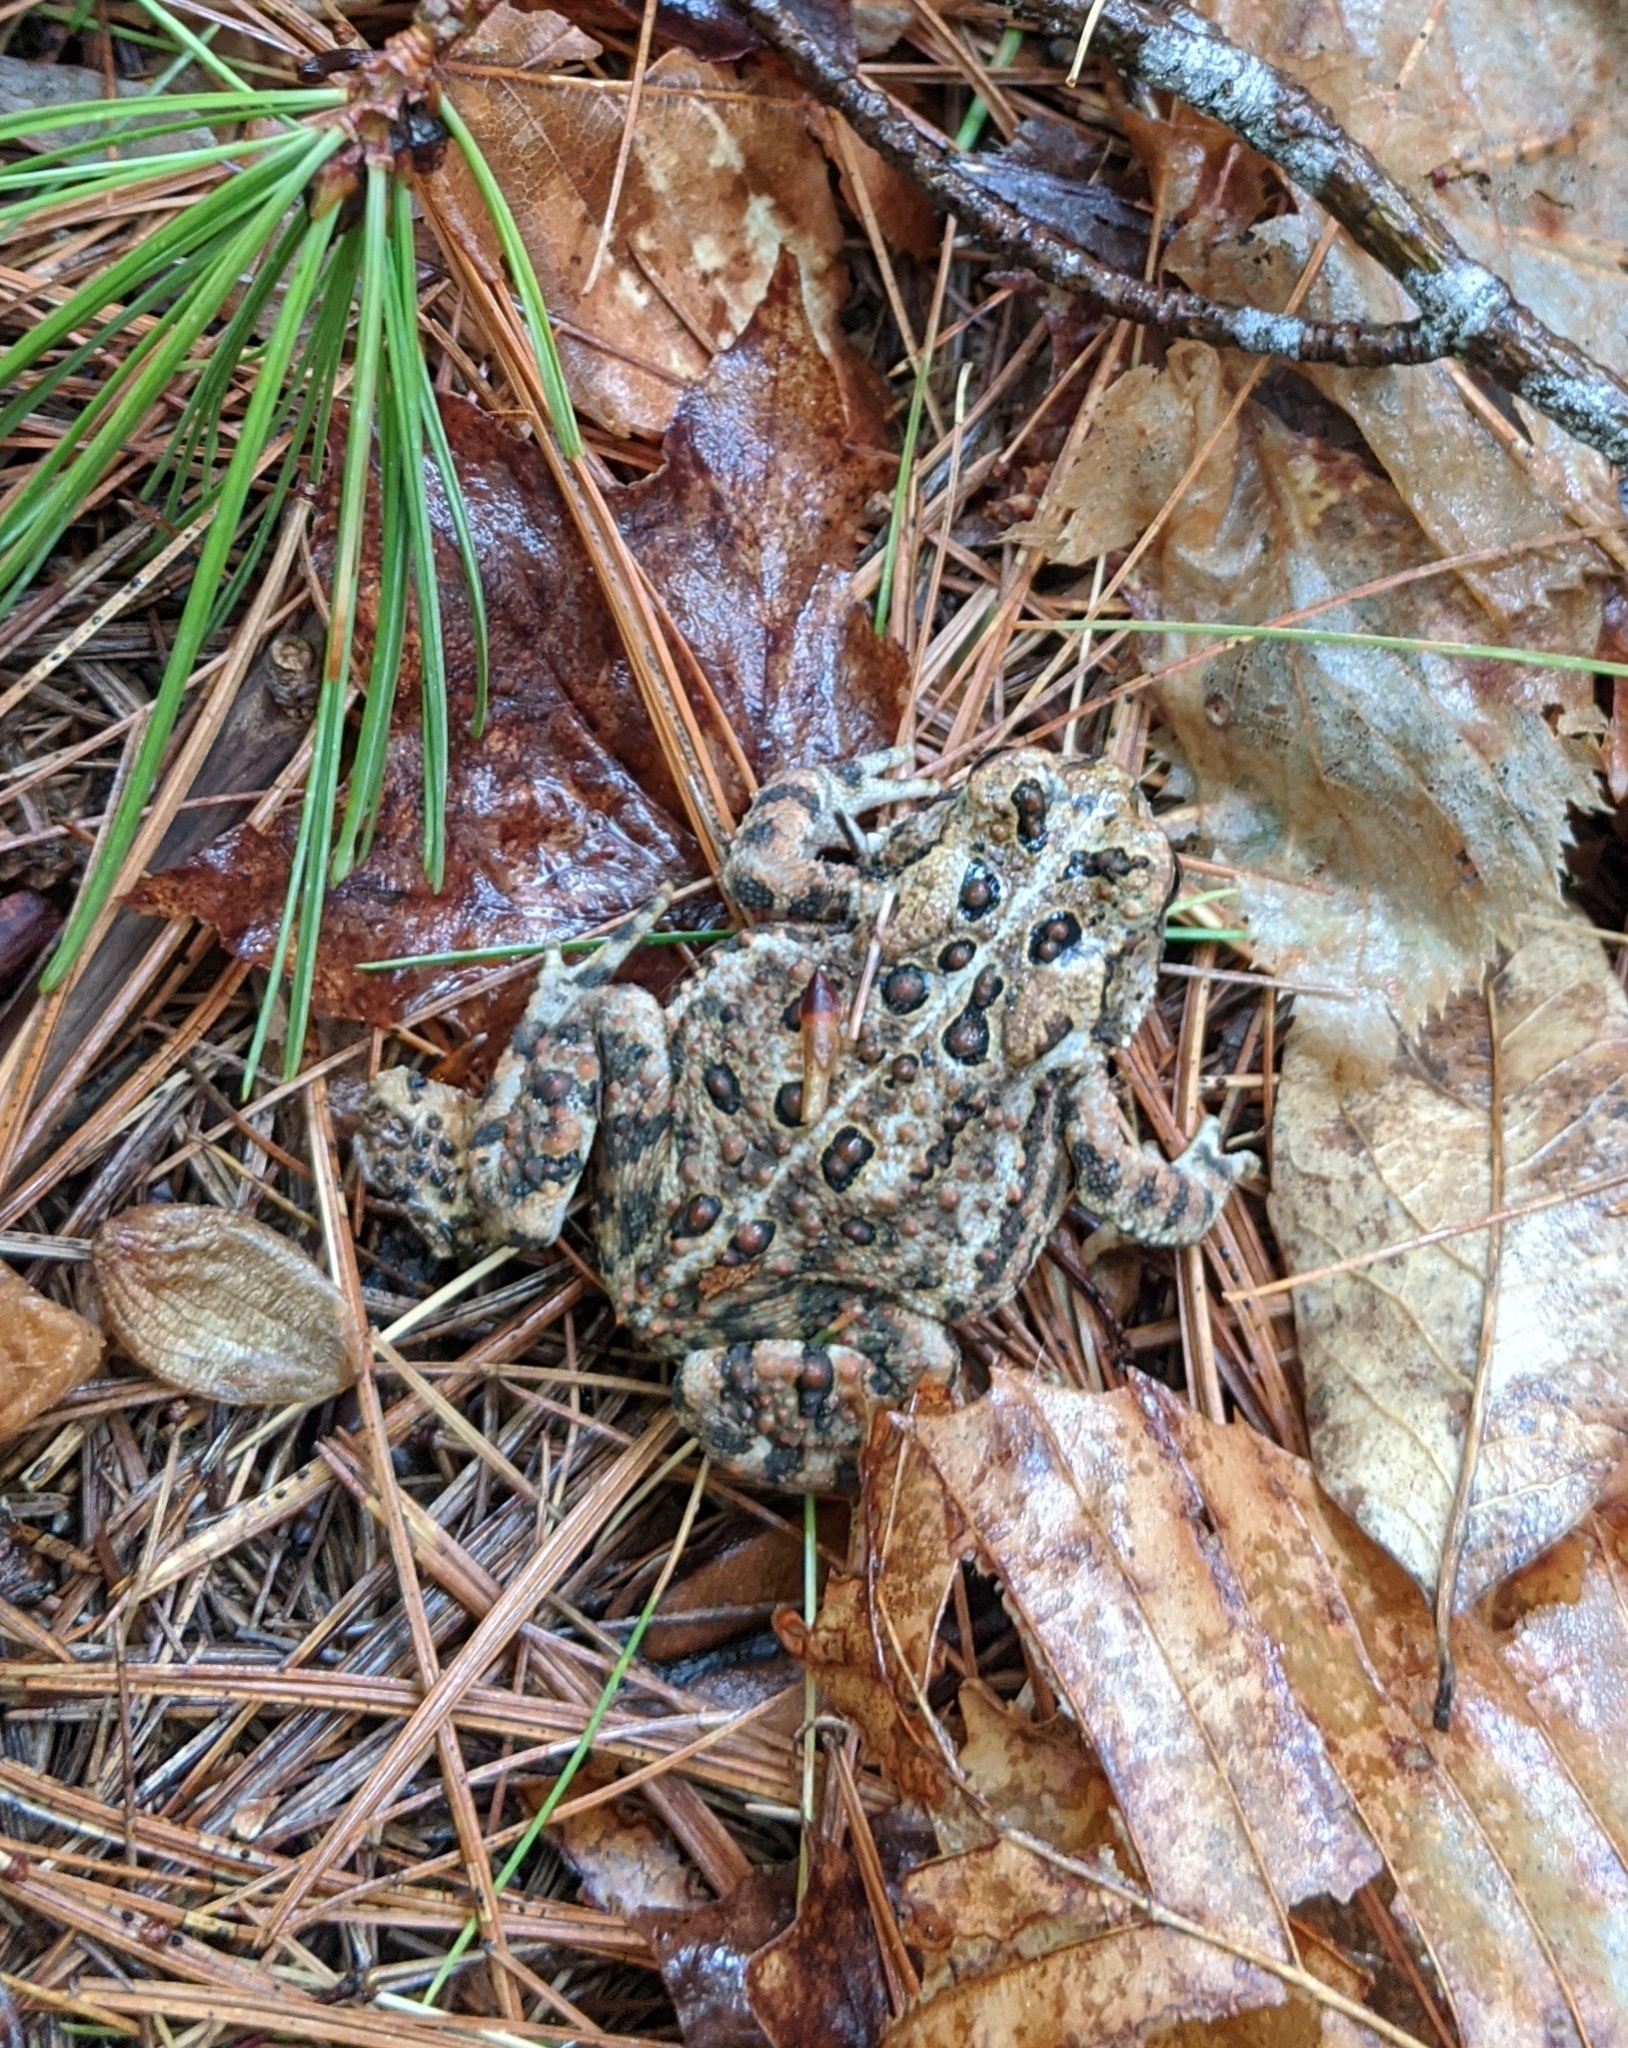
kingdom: Animalia
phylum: Chordata
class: Amphibia
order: Anura
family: Bufonidae
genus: Anaxyrus
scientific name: Anaxyrus americanus
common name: American toad
